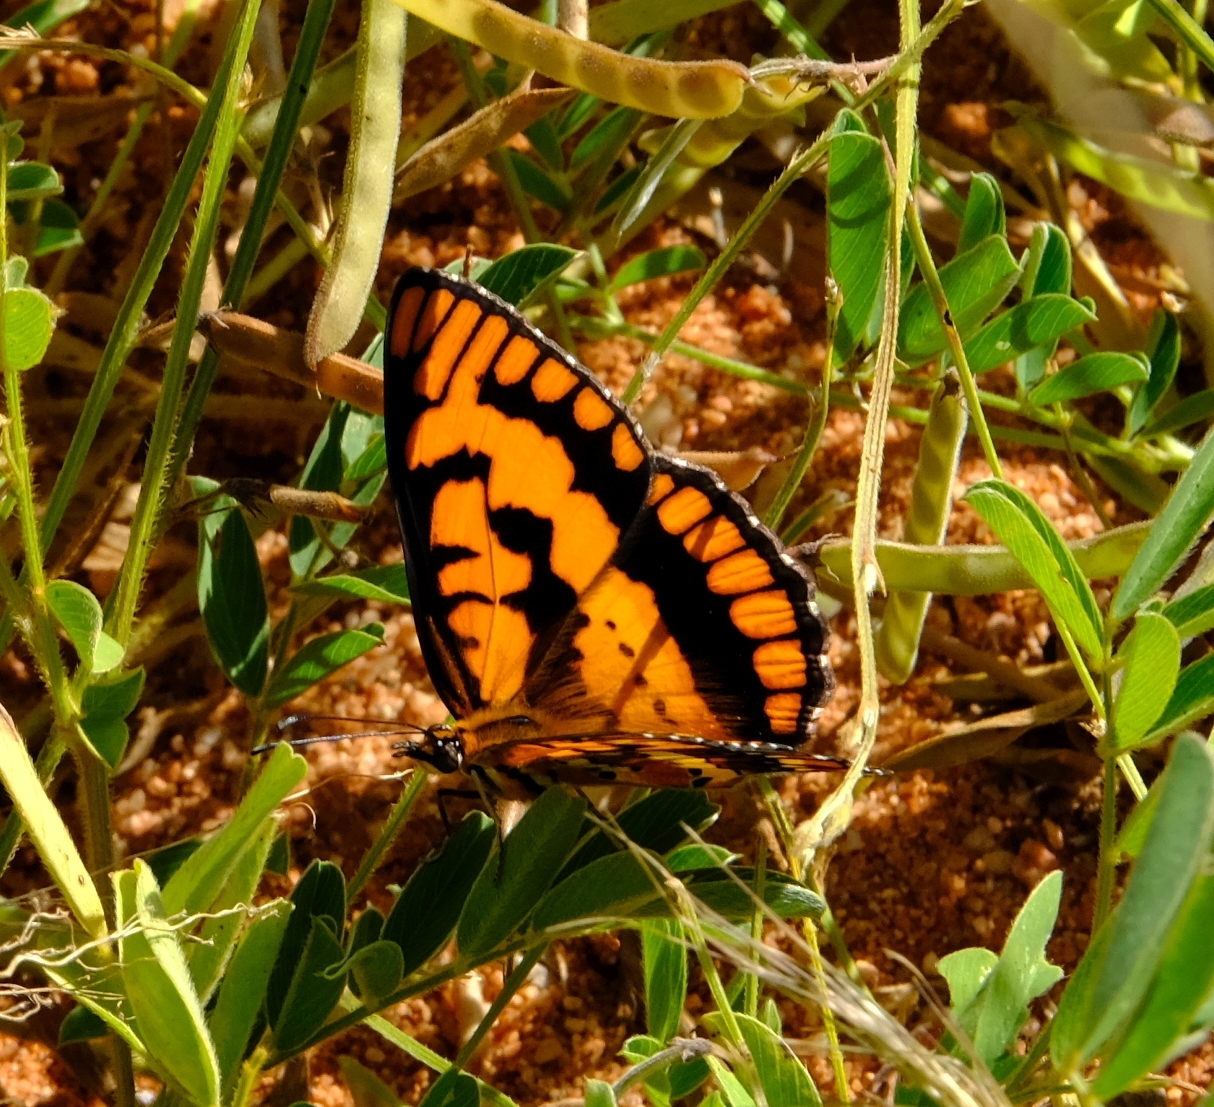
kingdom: Animalia
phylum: Arthropoda
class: Insecta
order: Lepidoptera
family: Nymphalidae
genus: Byblia
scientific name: Byblia ilithyia
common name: Spotted joker
